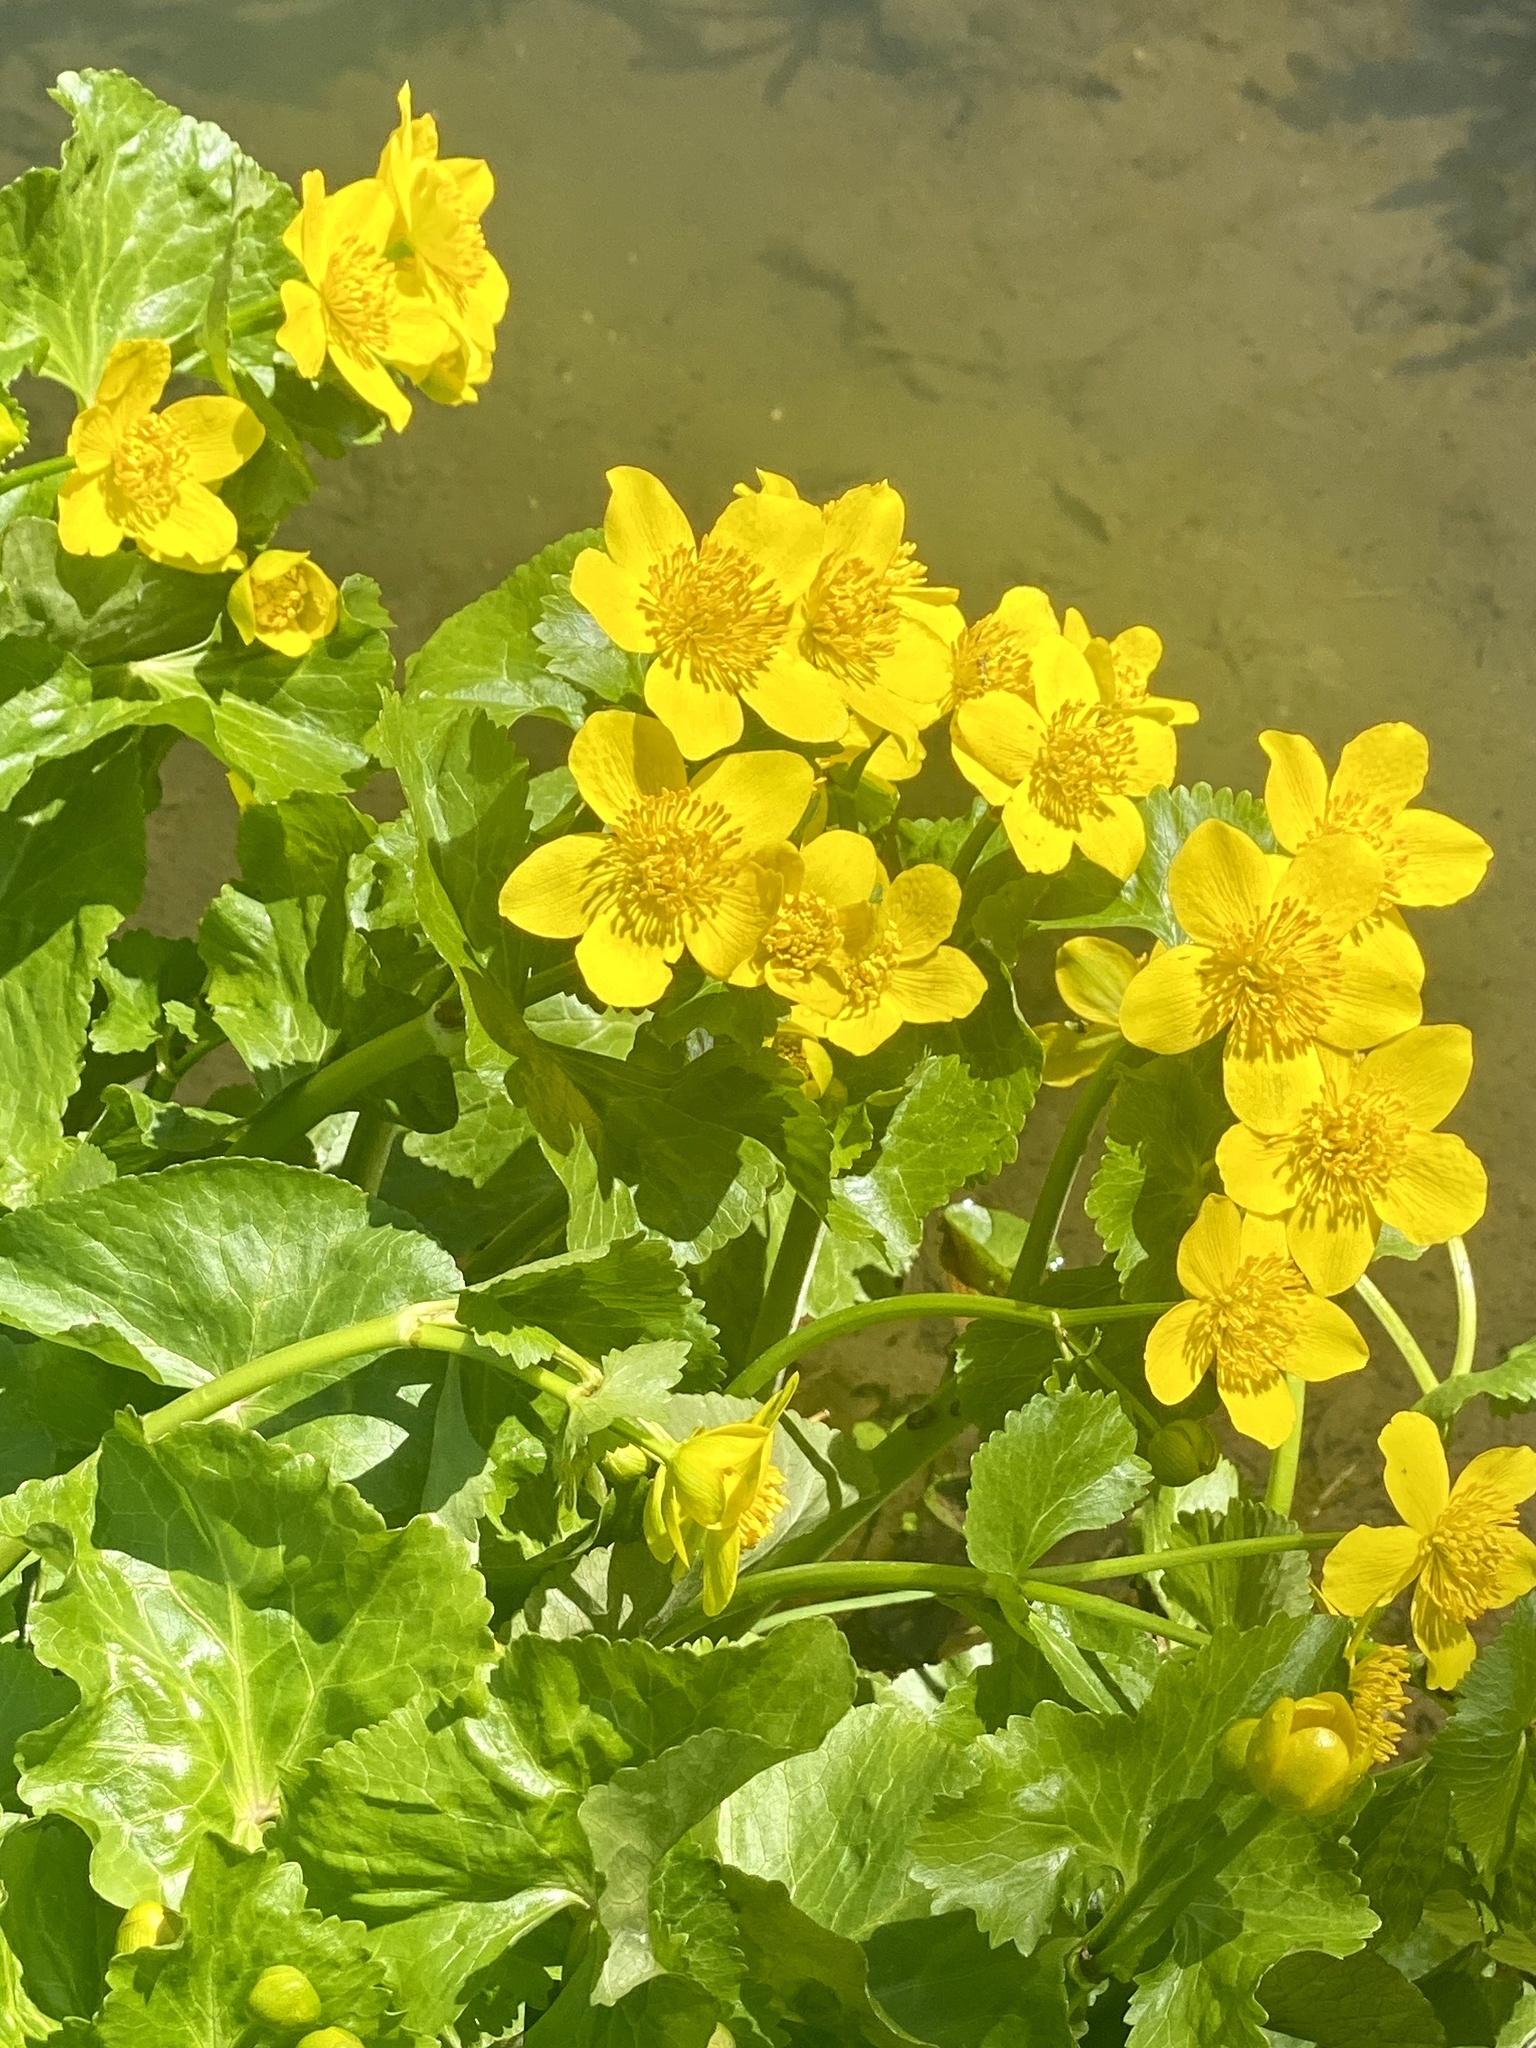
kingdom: Plantae
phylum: Tracheophyta
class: Magnoliopsida
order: Ranunculales
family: Ranunculaceae
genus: Caltha
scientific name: Caltha palustris
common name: Marsh marigold
